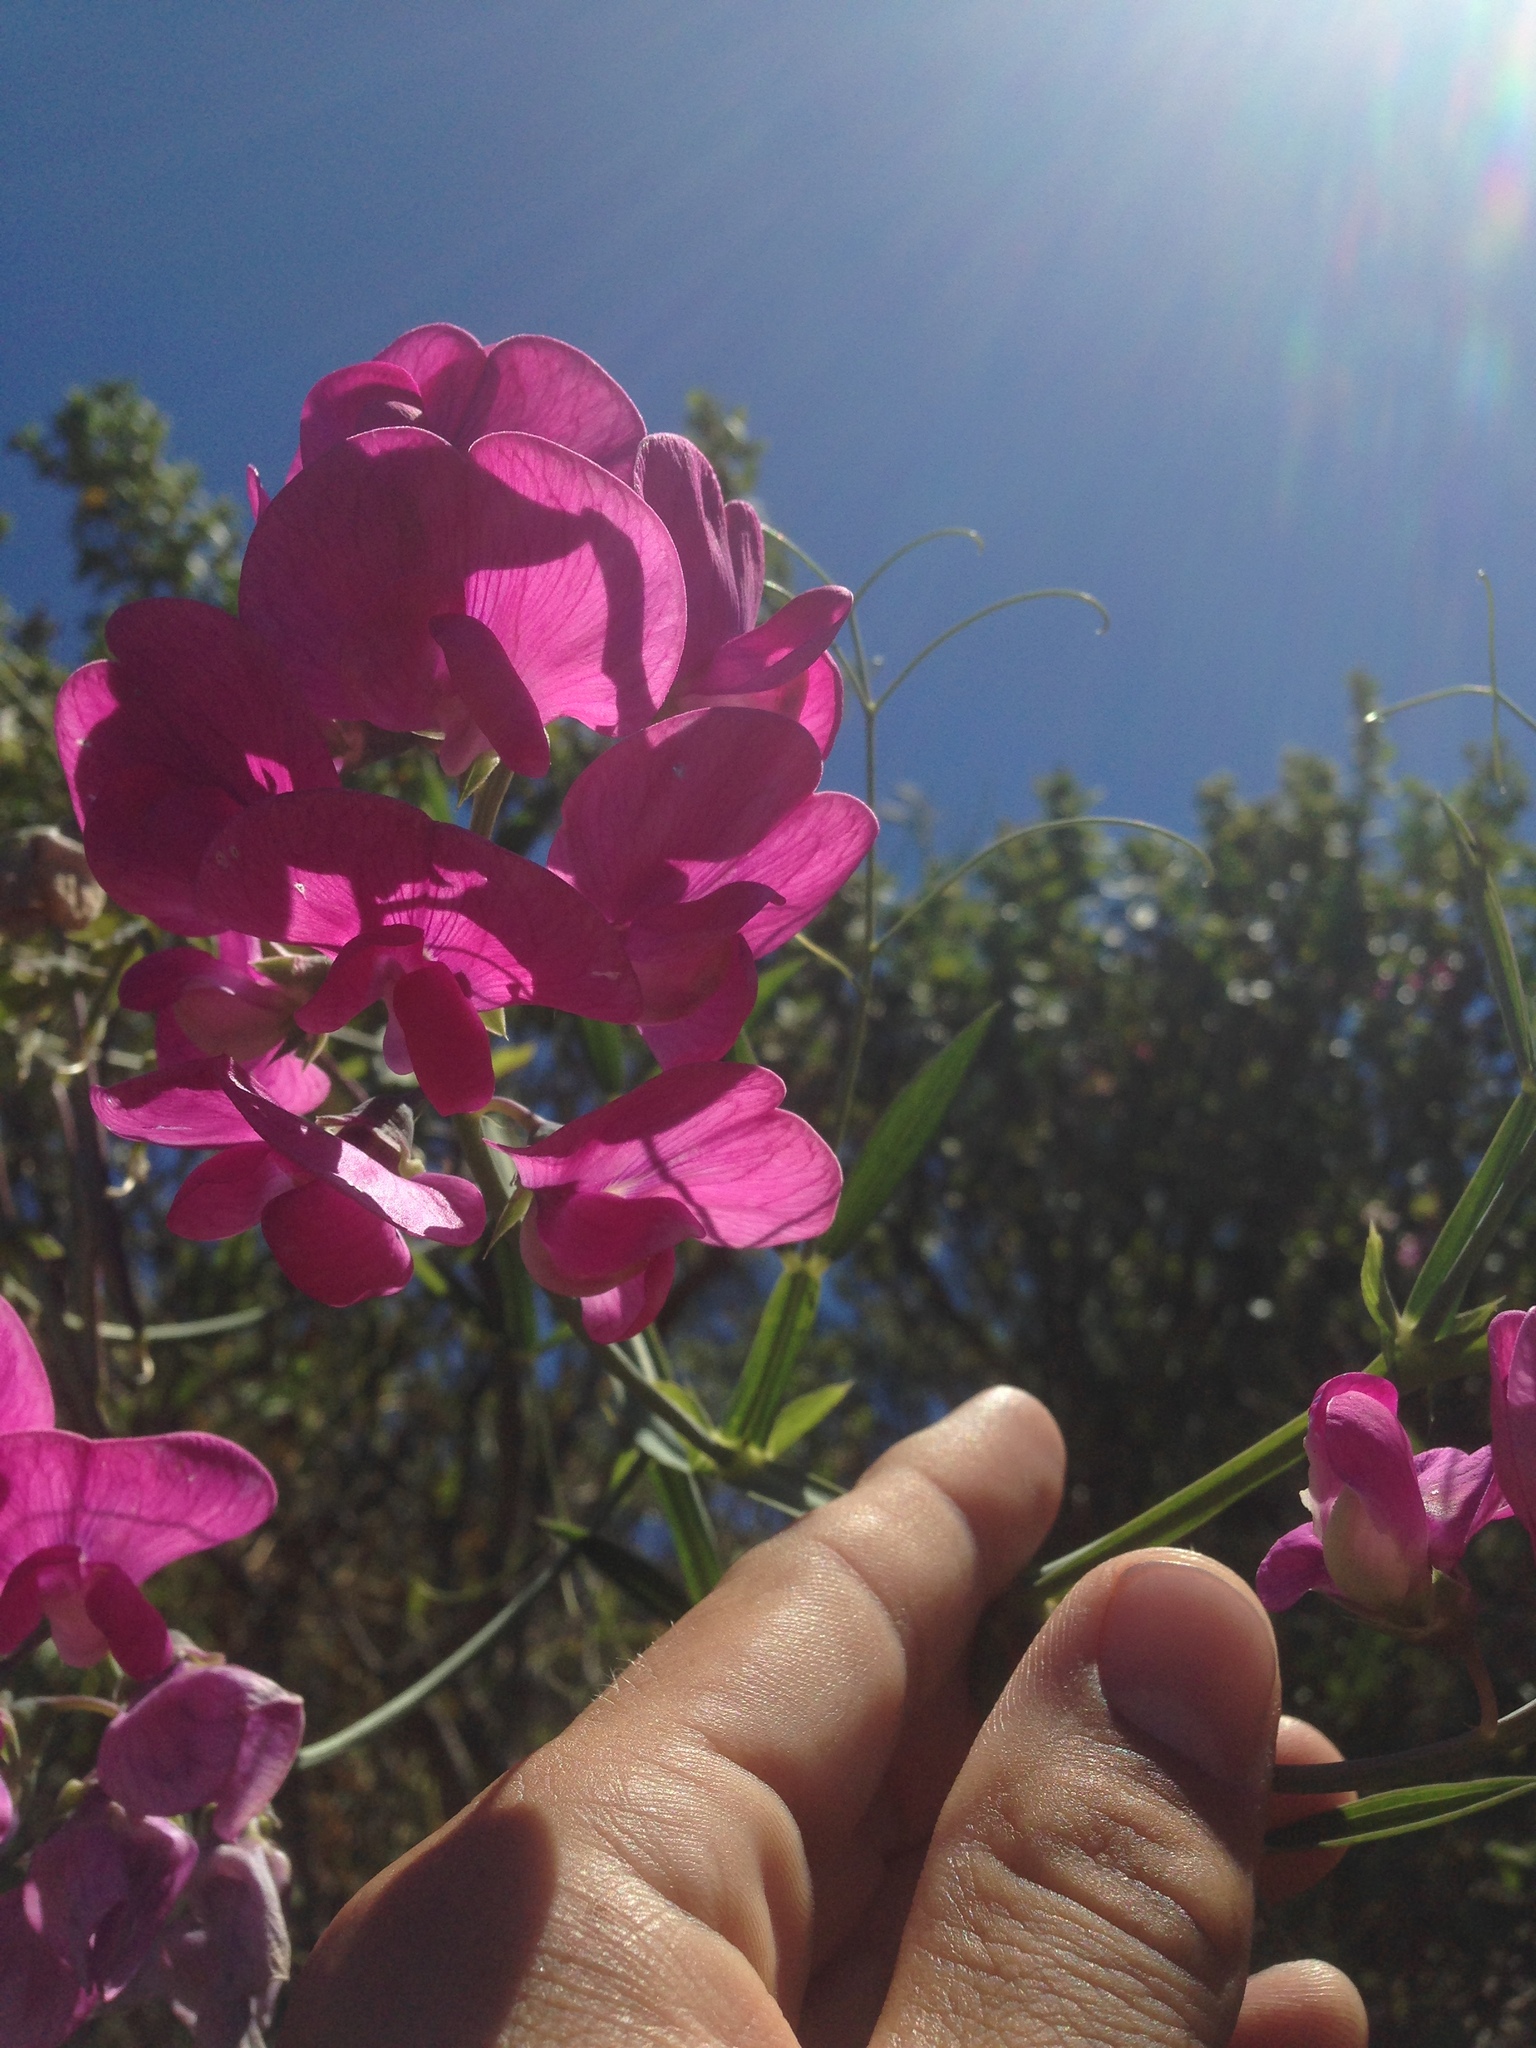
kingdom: Plantae
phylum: Tracheophyta
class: Magnoliopsida
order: Fabales
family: Fabaceae
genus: Lathyrus
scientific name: Lathyrus latifolius
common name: Perennial pea
